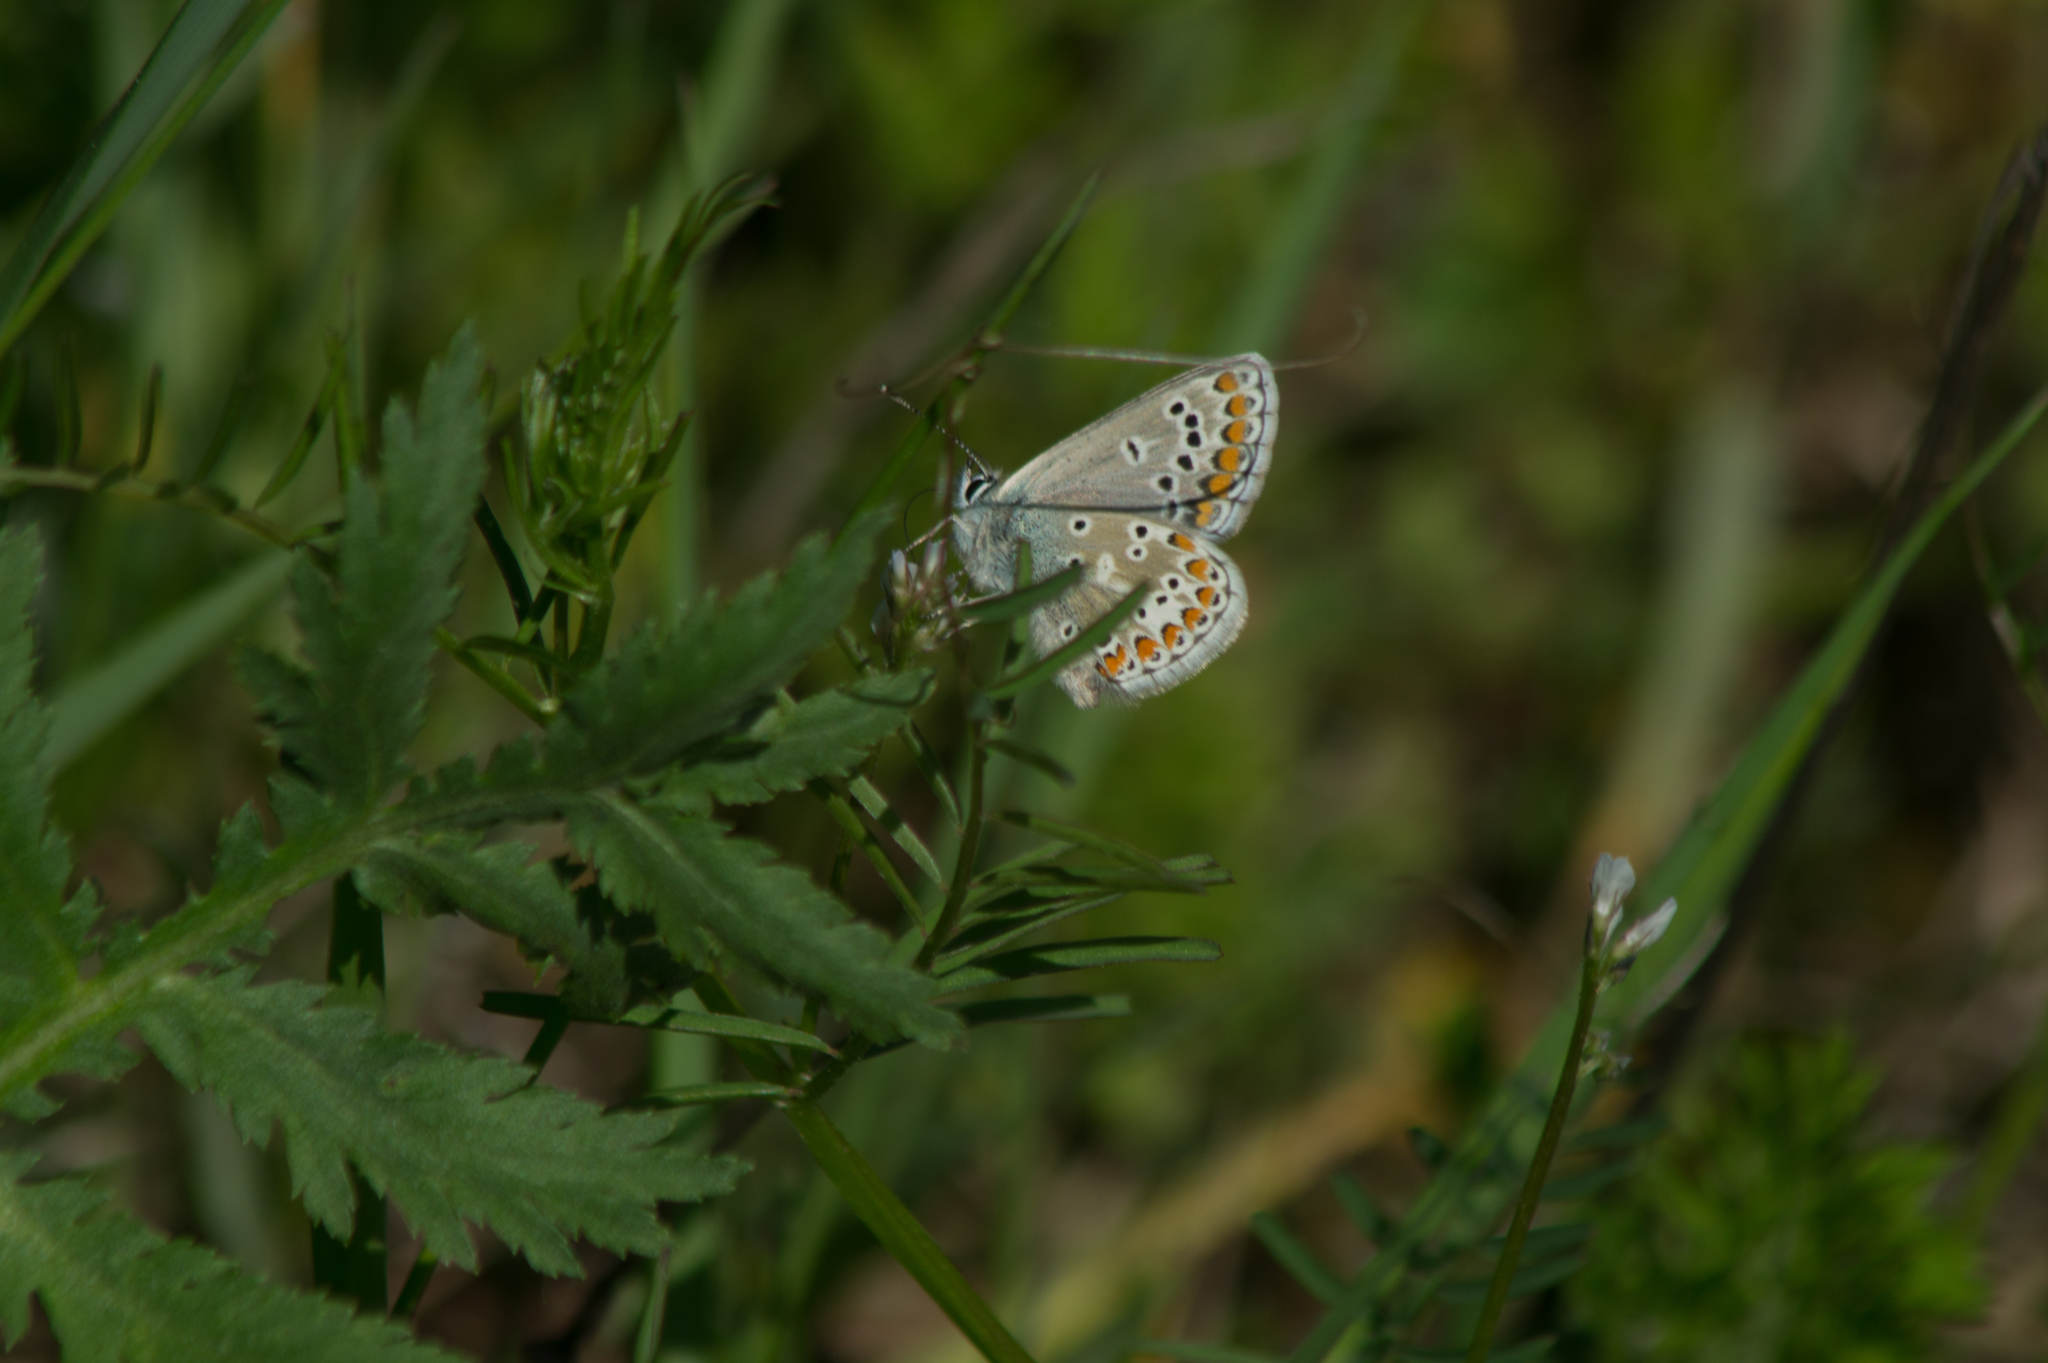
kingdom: Animalia
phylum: Arthropoda
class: Insecta
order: Lepidoptera
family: Lycaenidae
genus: Aricia
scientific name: Aricia agestis
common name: Brown argus
